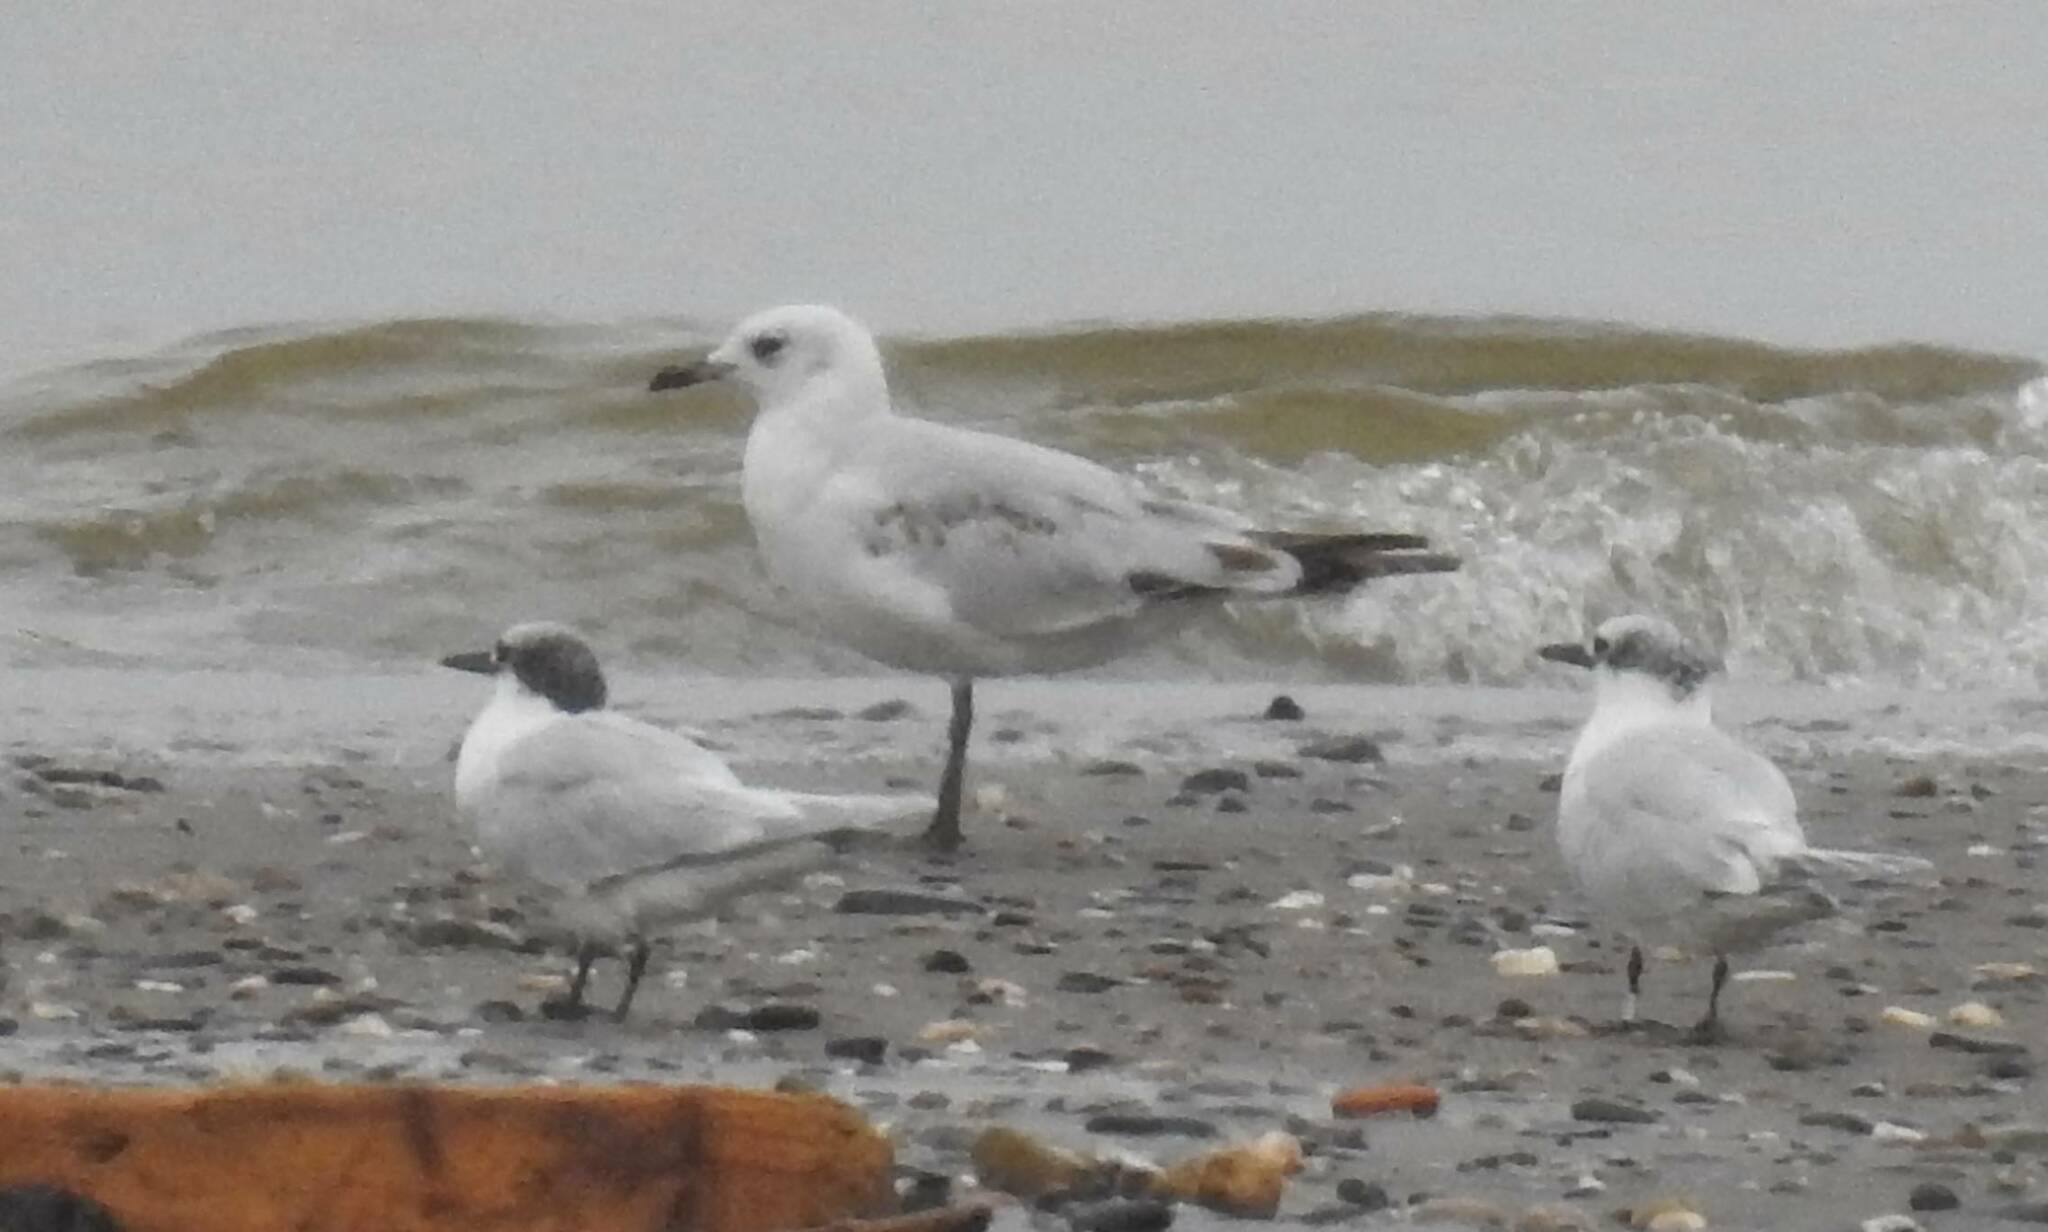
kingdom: Animalia
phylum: Chordata
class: Aves
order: Charadriiformes
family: Laridae
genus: Ichthyaetus
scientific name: Ichthyaetus melanocephalus
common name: Mediterranean gull
